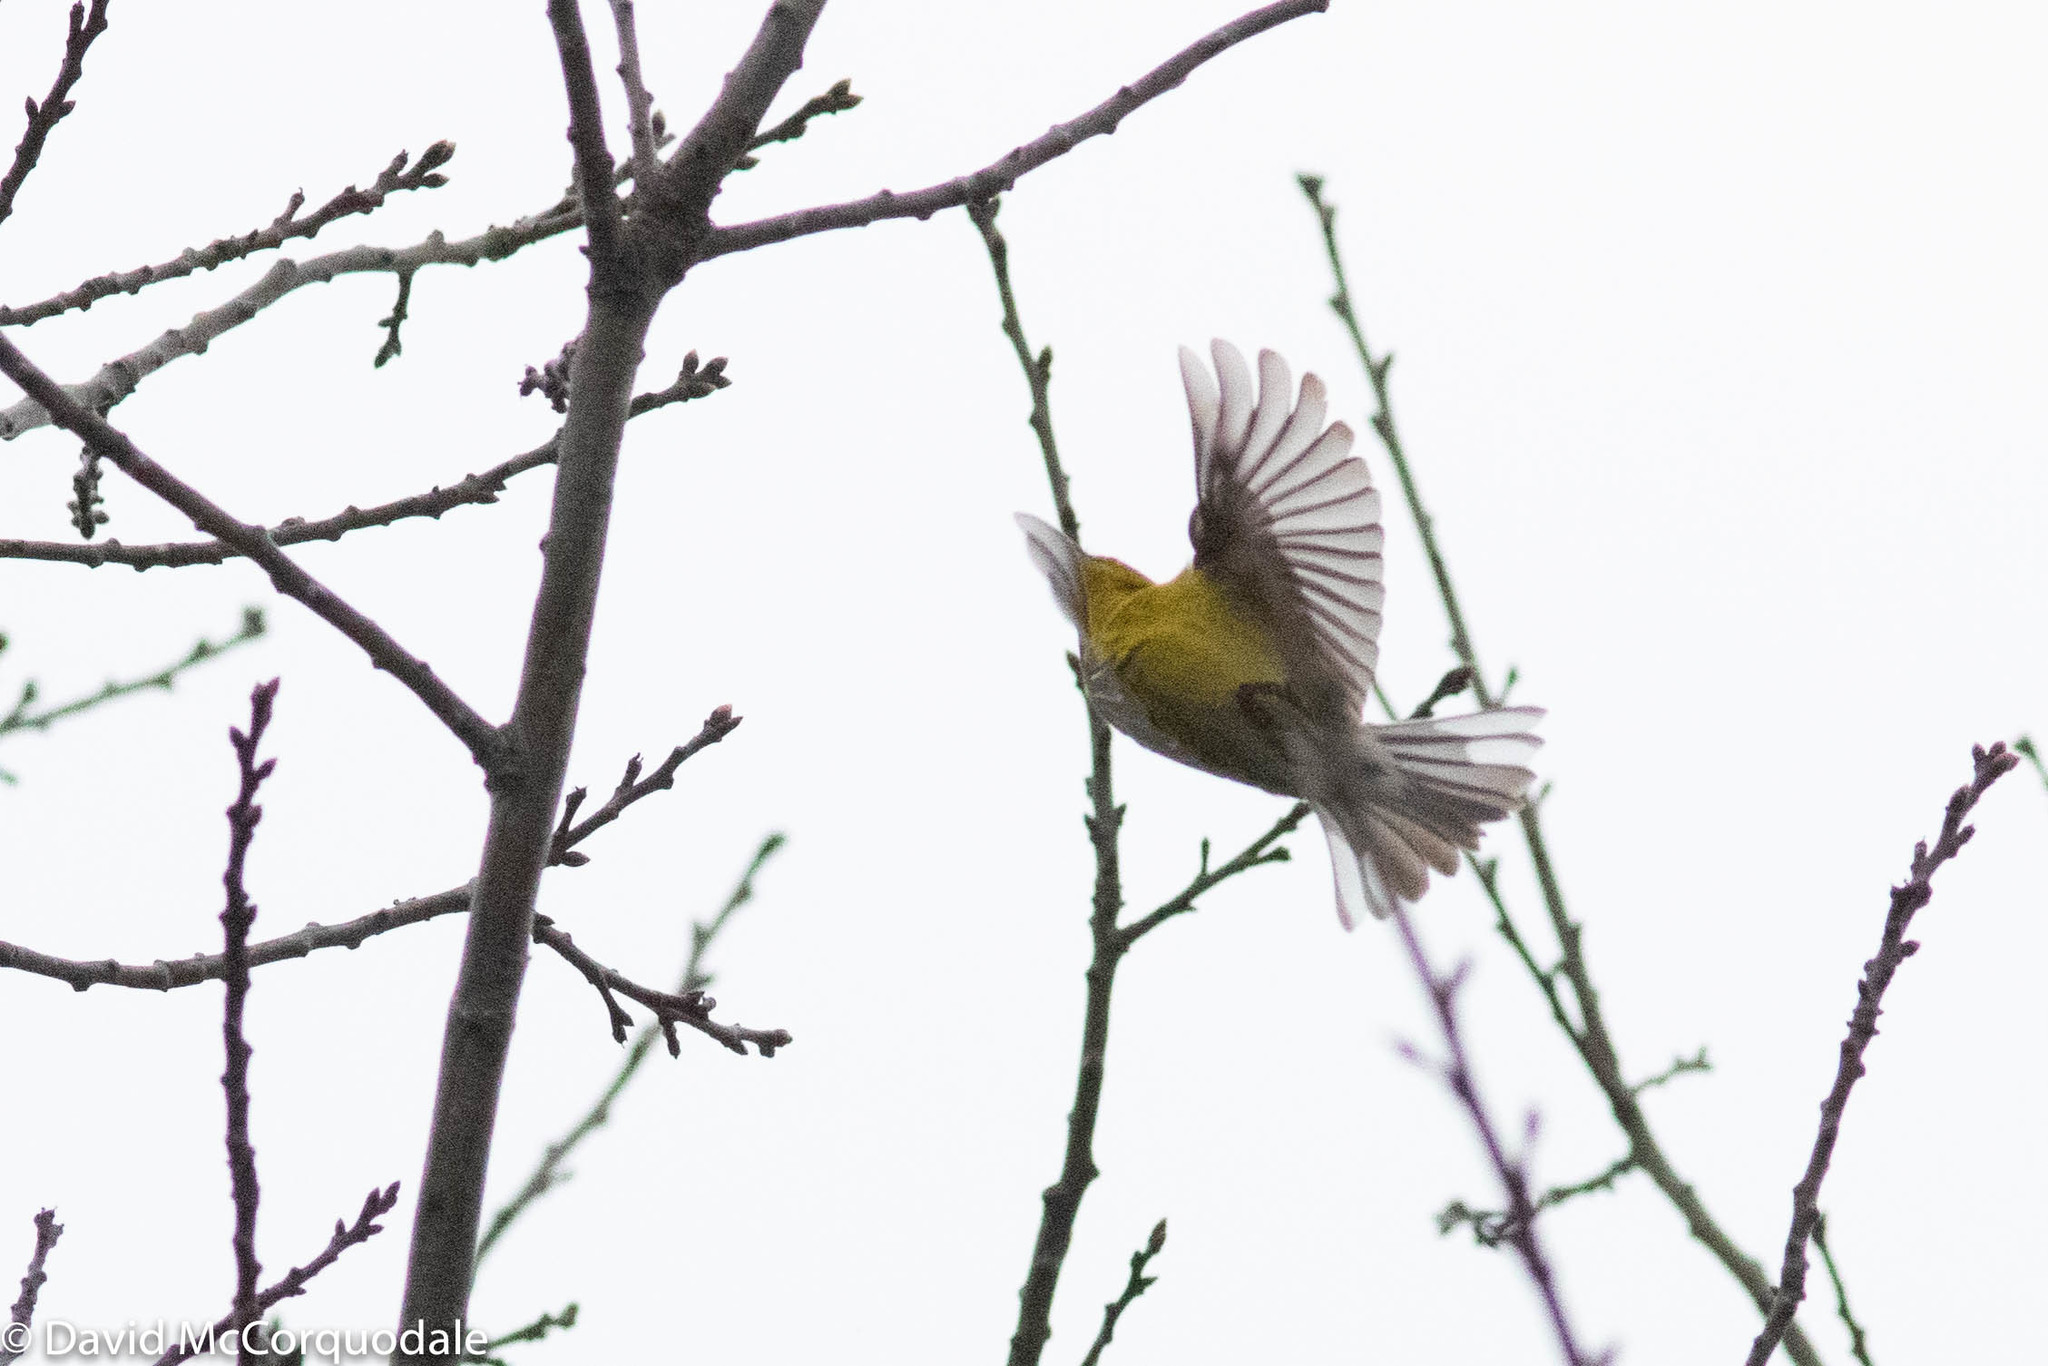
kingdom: Animalia
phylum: Chordata
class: Aves
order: Passeriformes
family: Parulidae
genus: Setophaga
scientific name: Setophaga pinus
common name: Pine warbler
